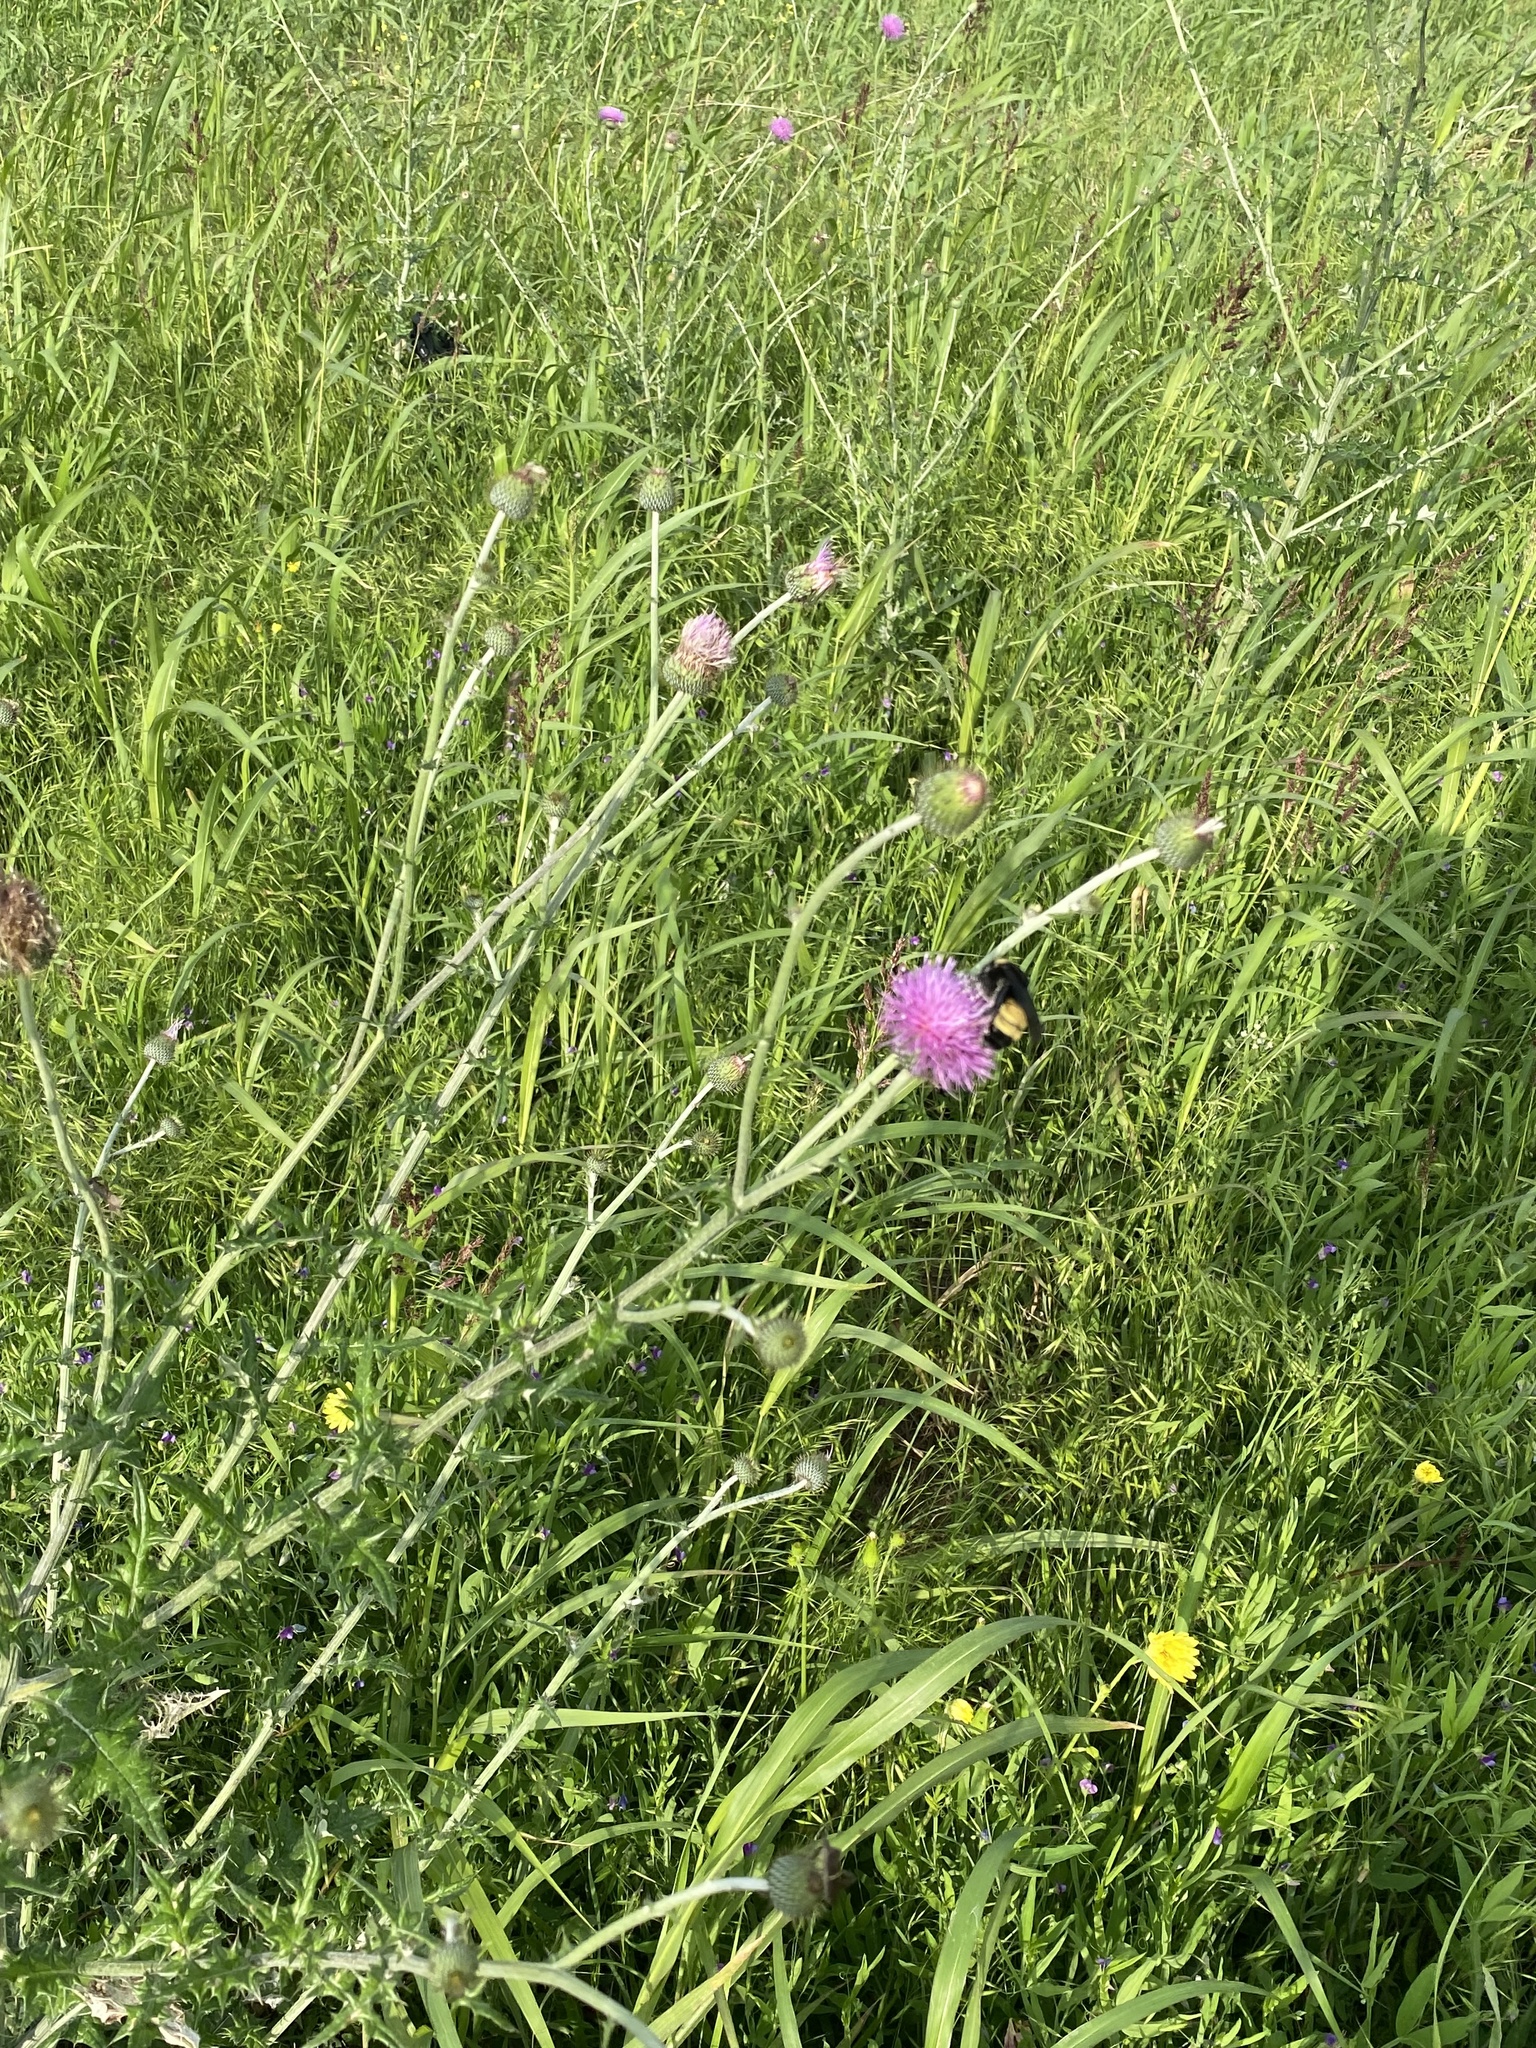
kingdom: Animalia
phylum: Arthropoda
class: Insecta
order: Hymenoptera
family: Apidae
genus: Bombus
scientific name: Bombus pensylvanicus
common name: Bumble bee
